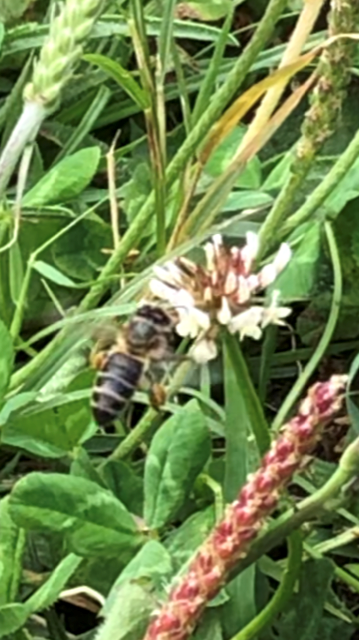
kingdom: Animalia
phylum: Arthropoda
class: Insecta
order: Hymenoptera
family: Apidae
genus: Apis
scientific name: Apis mellifera
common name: Honey bee
